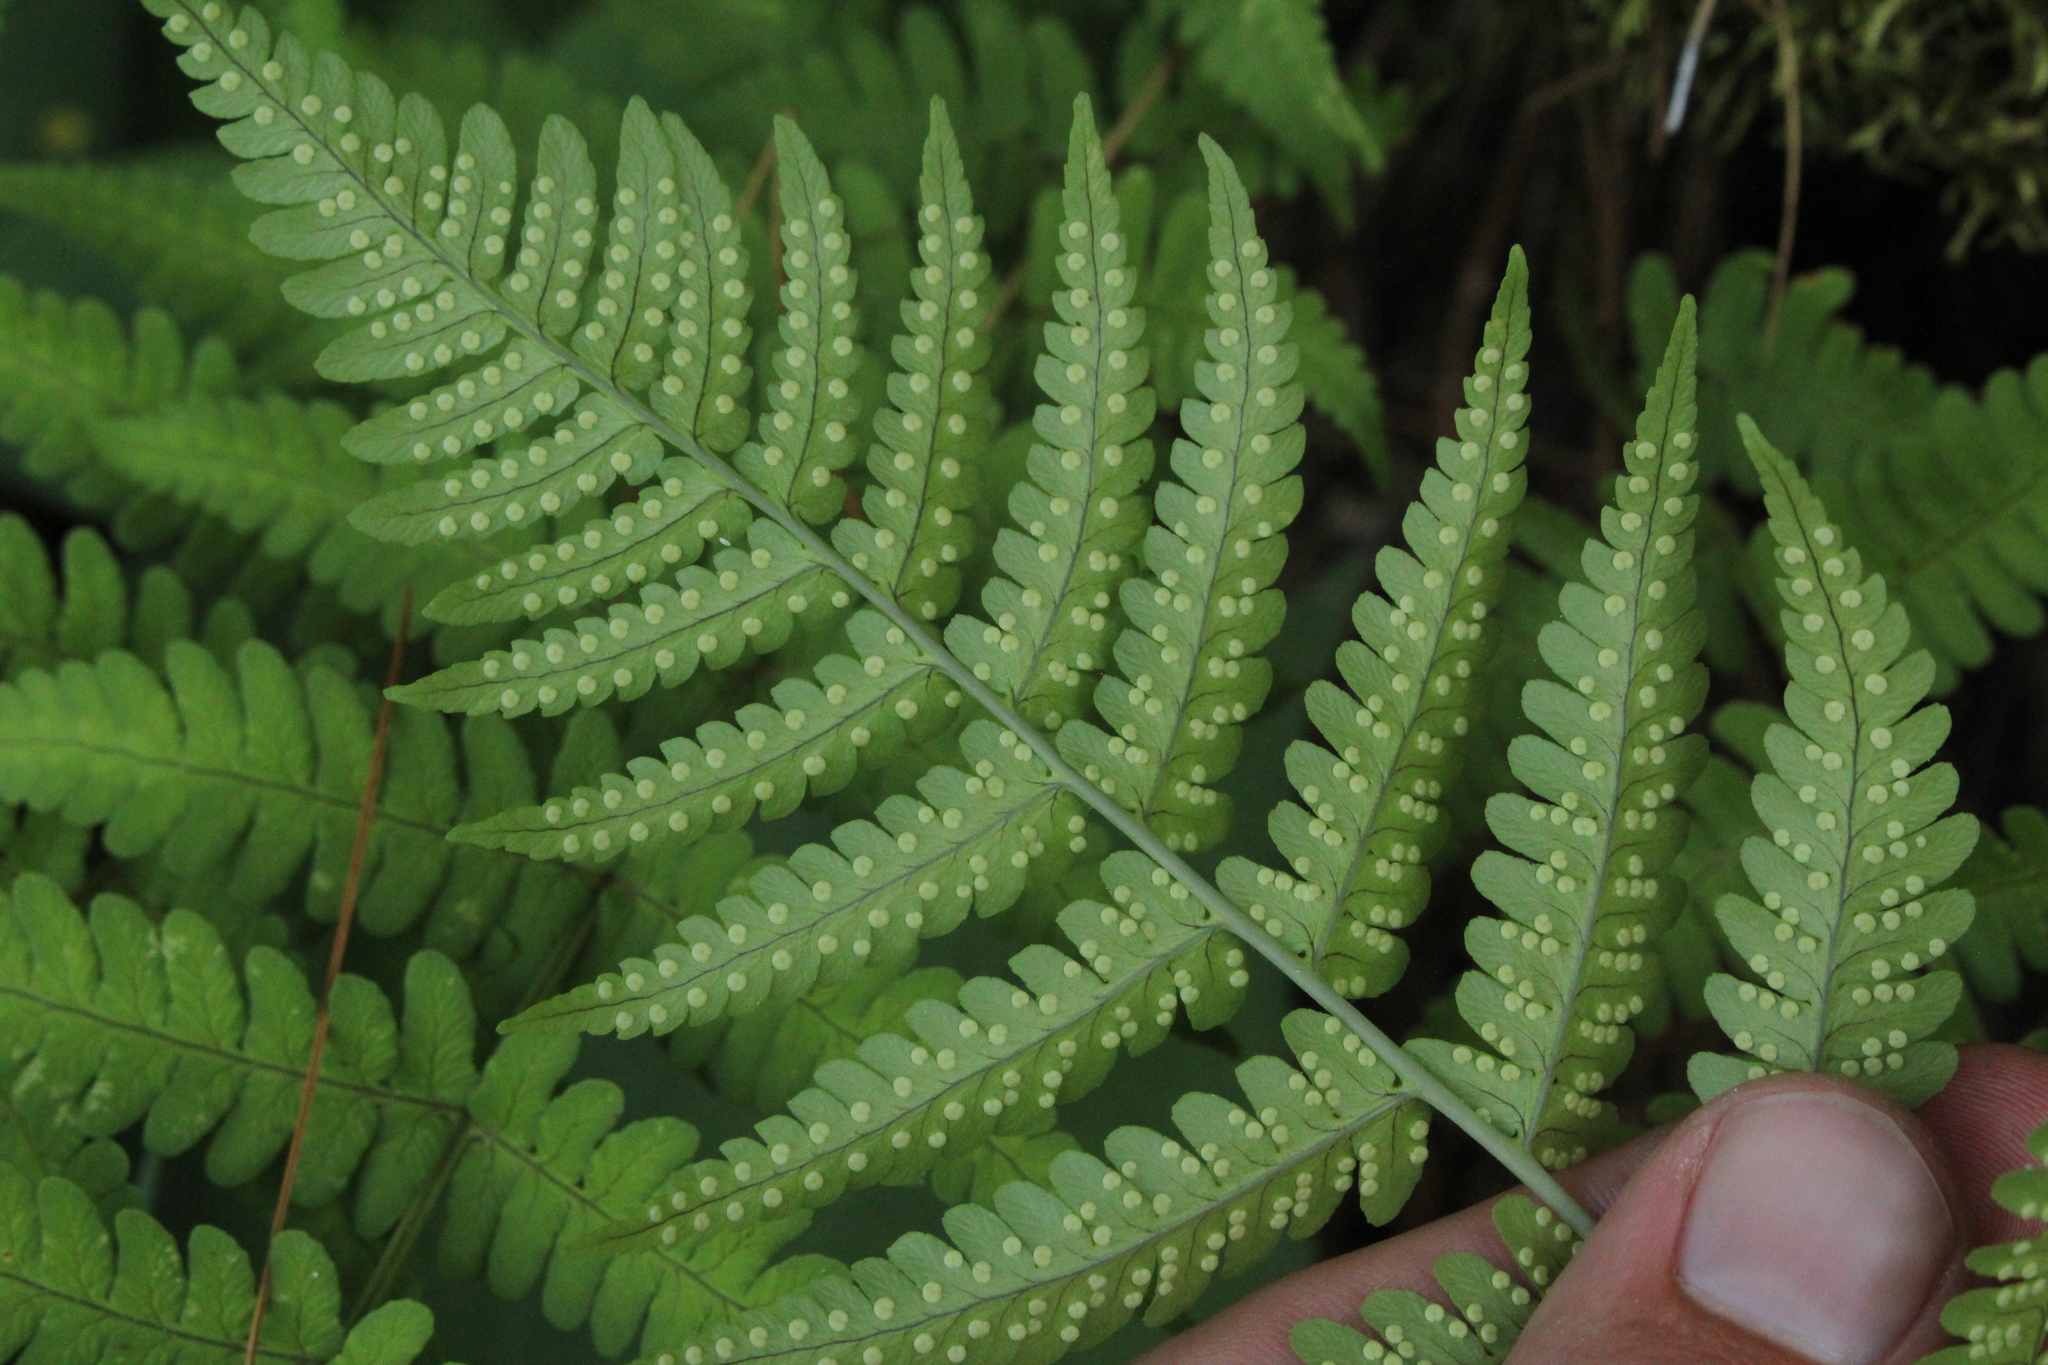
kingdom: Plantae
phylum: Tracheophyta
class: Polypodiopsida
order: Polypodiales
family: Dryopteridaceae
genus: Dryopteris
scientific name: Dryopteris marginalis
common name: Marginal wood fern
